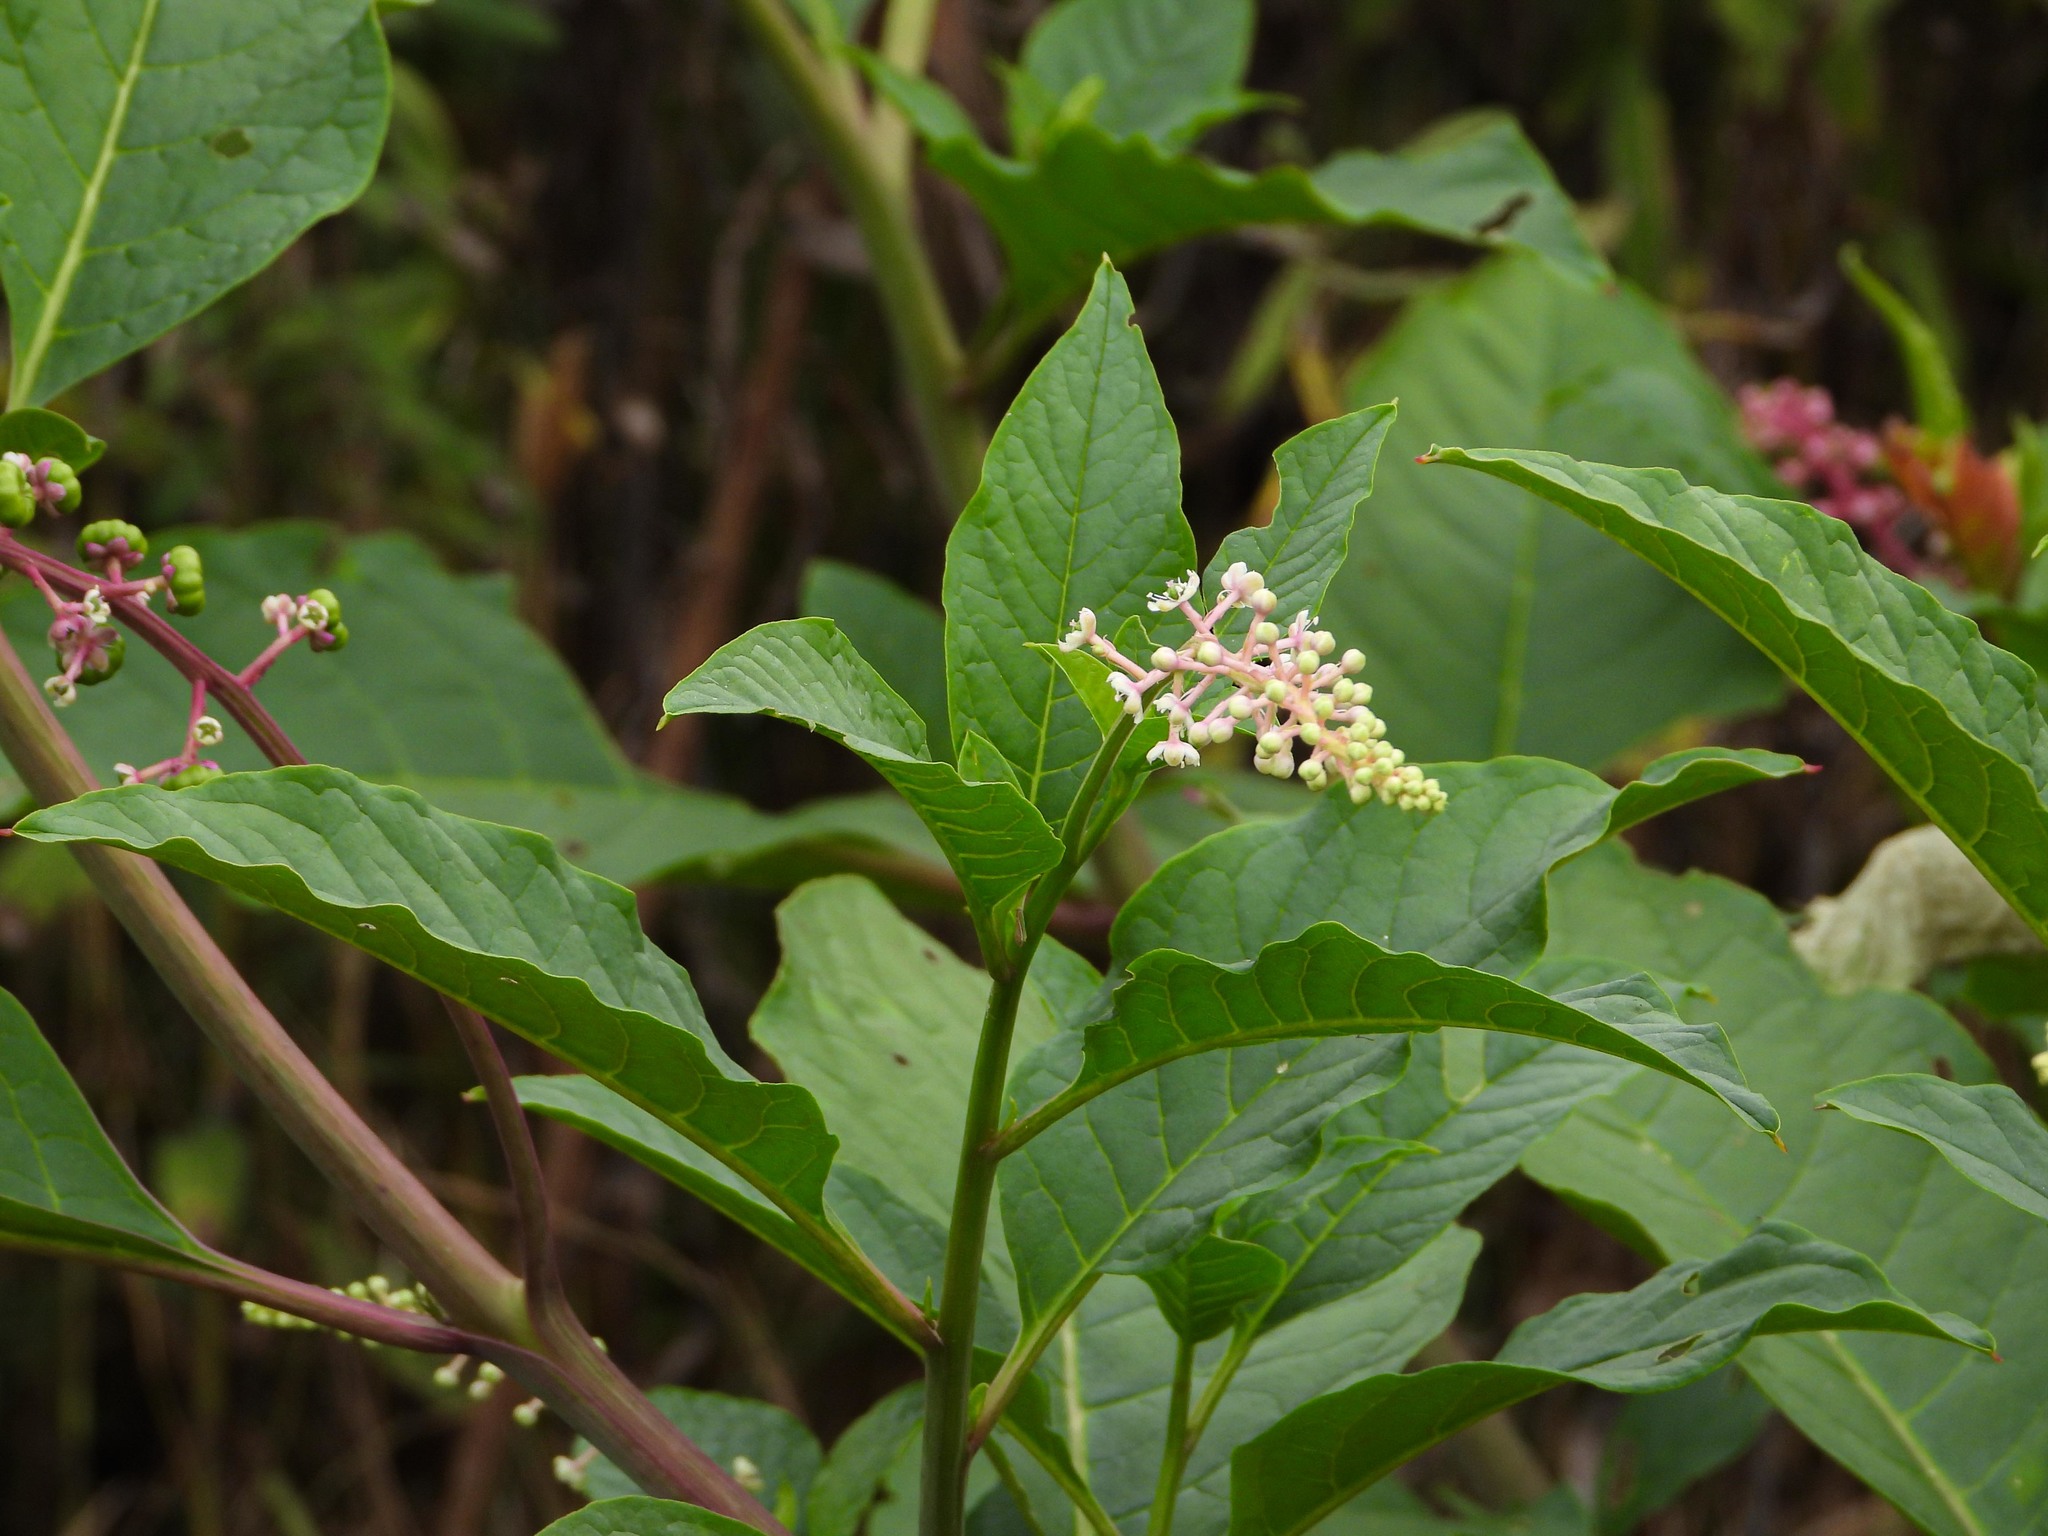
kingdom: Plantae
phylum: Tracheophyta
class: Magnoliopsida
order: Caryophyllales
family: Phytolaccaceae
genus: Phytolacca
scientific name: Phytolacca americana
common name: American pokeweed
